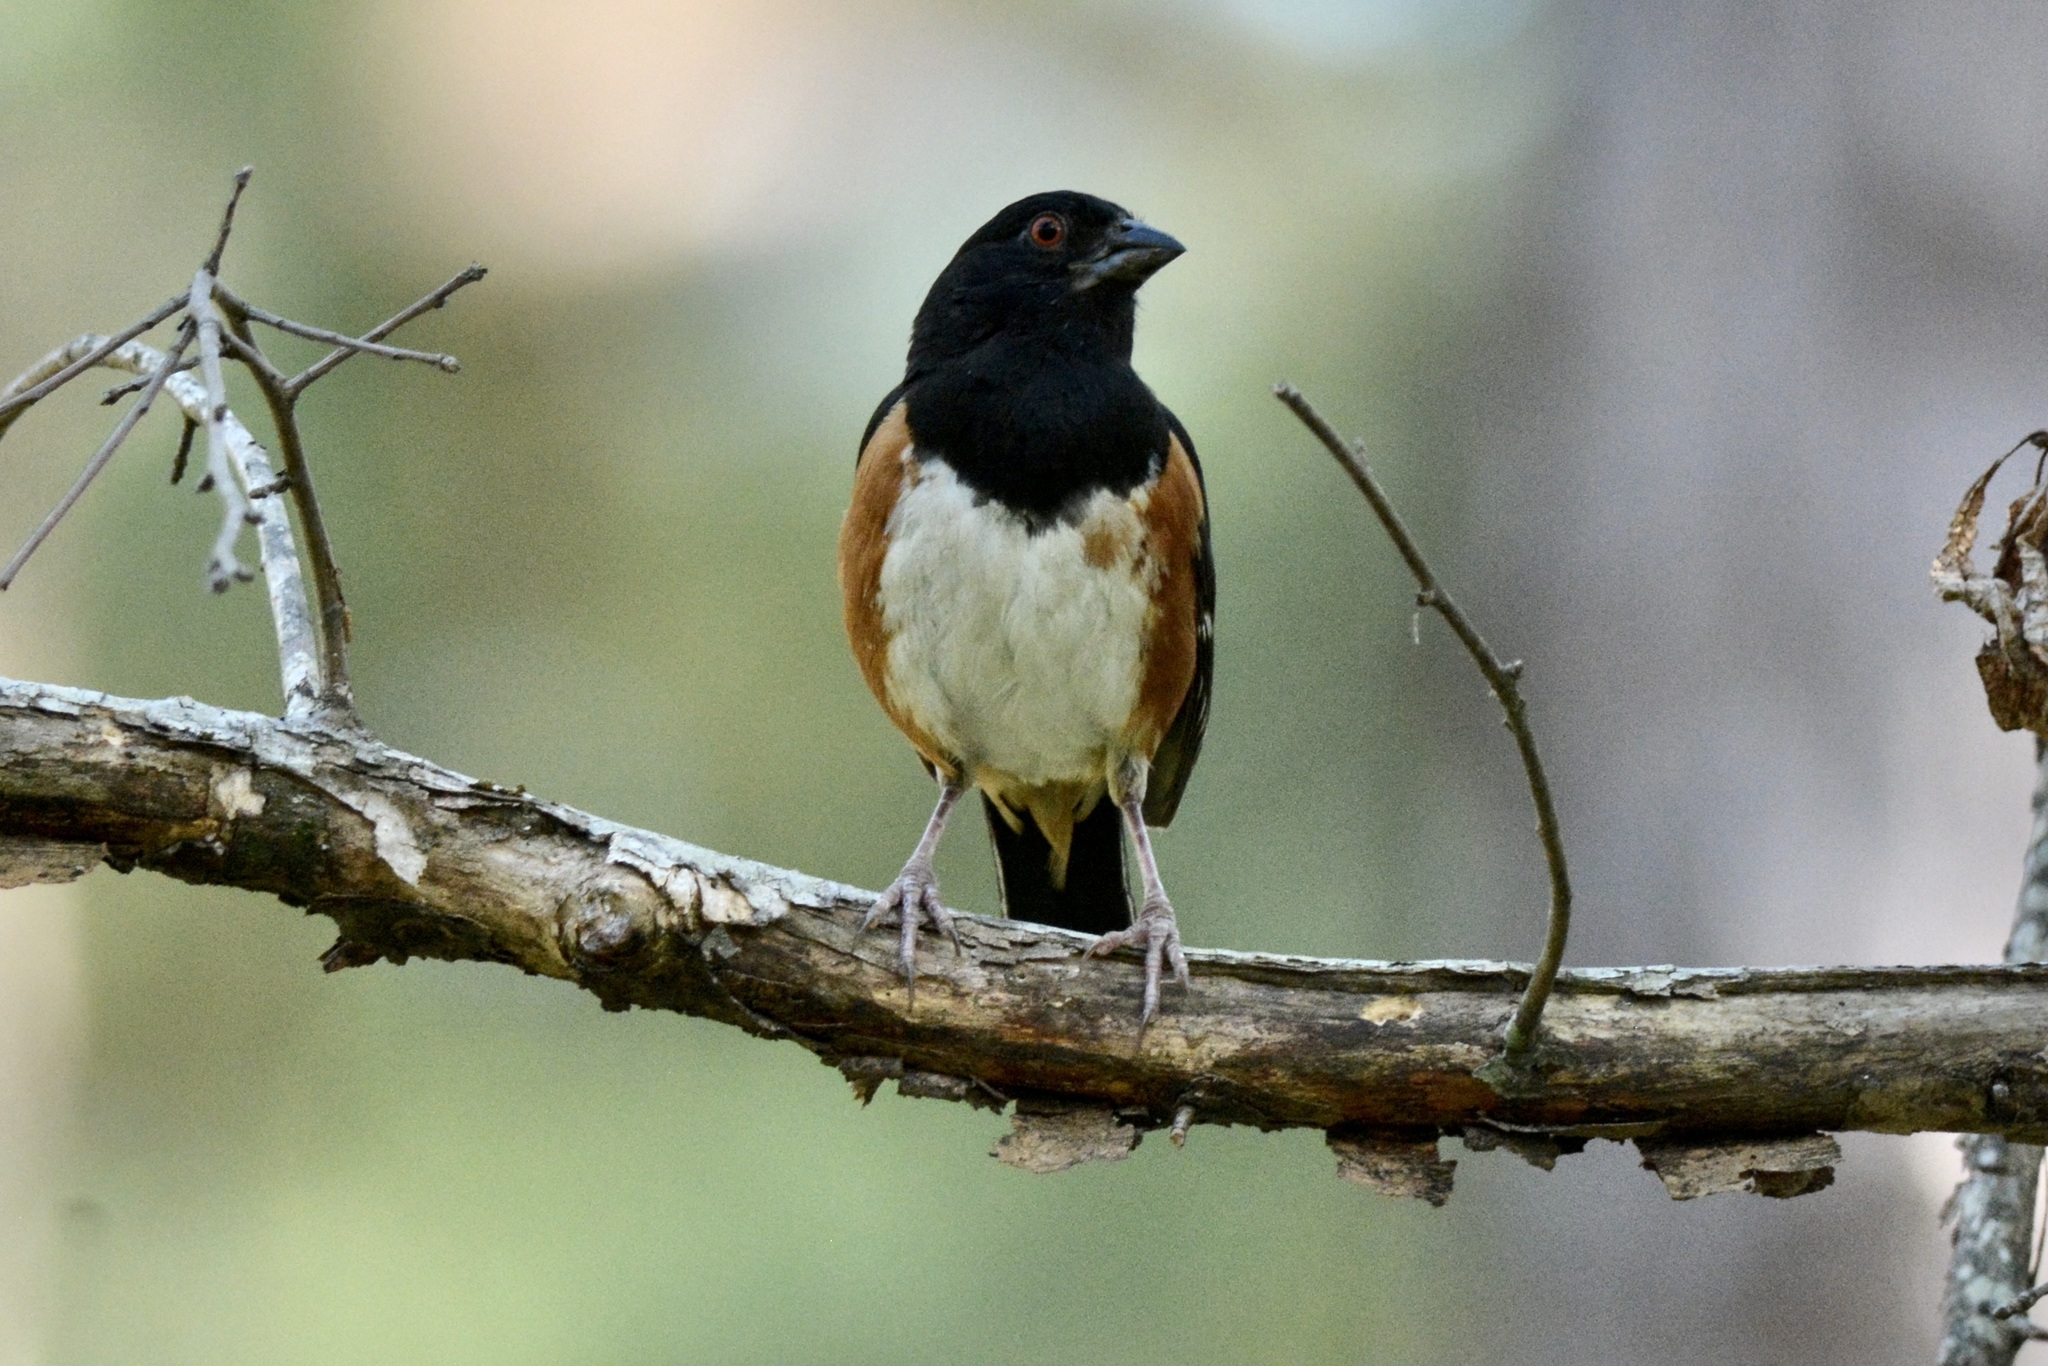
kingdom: Animalia
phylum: Chordata
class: Aves
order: Passeriformes
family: Passerellidae
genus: Pipilo
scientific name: Pipilo erythrophthalmus
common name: Eastern towhee
